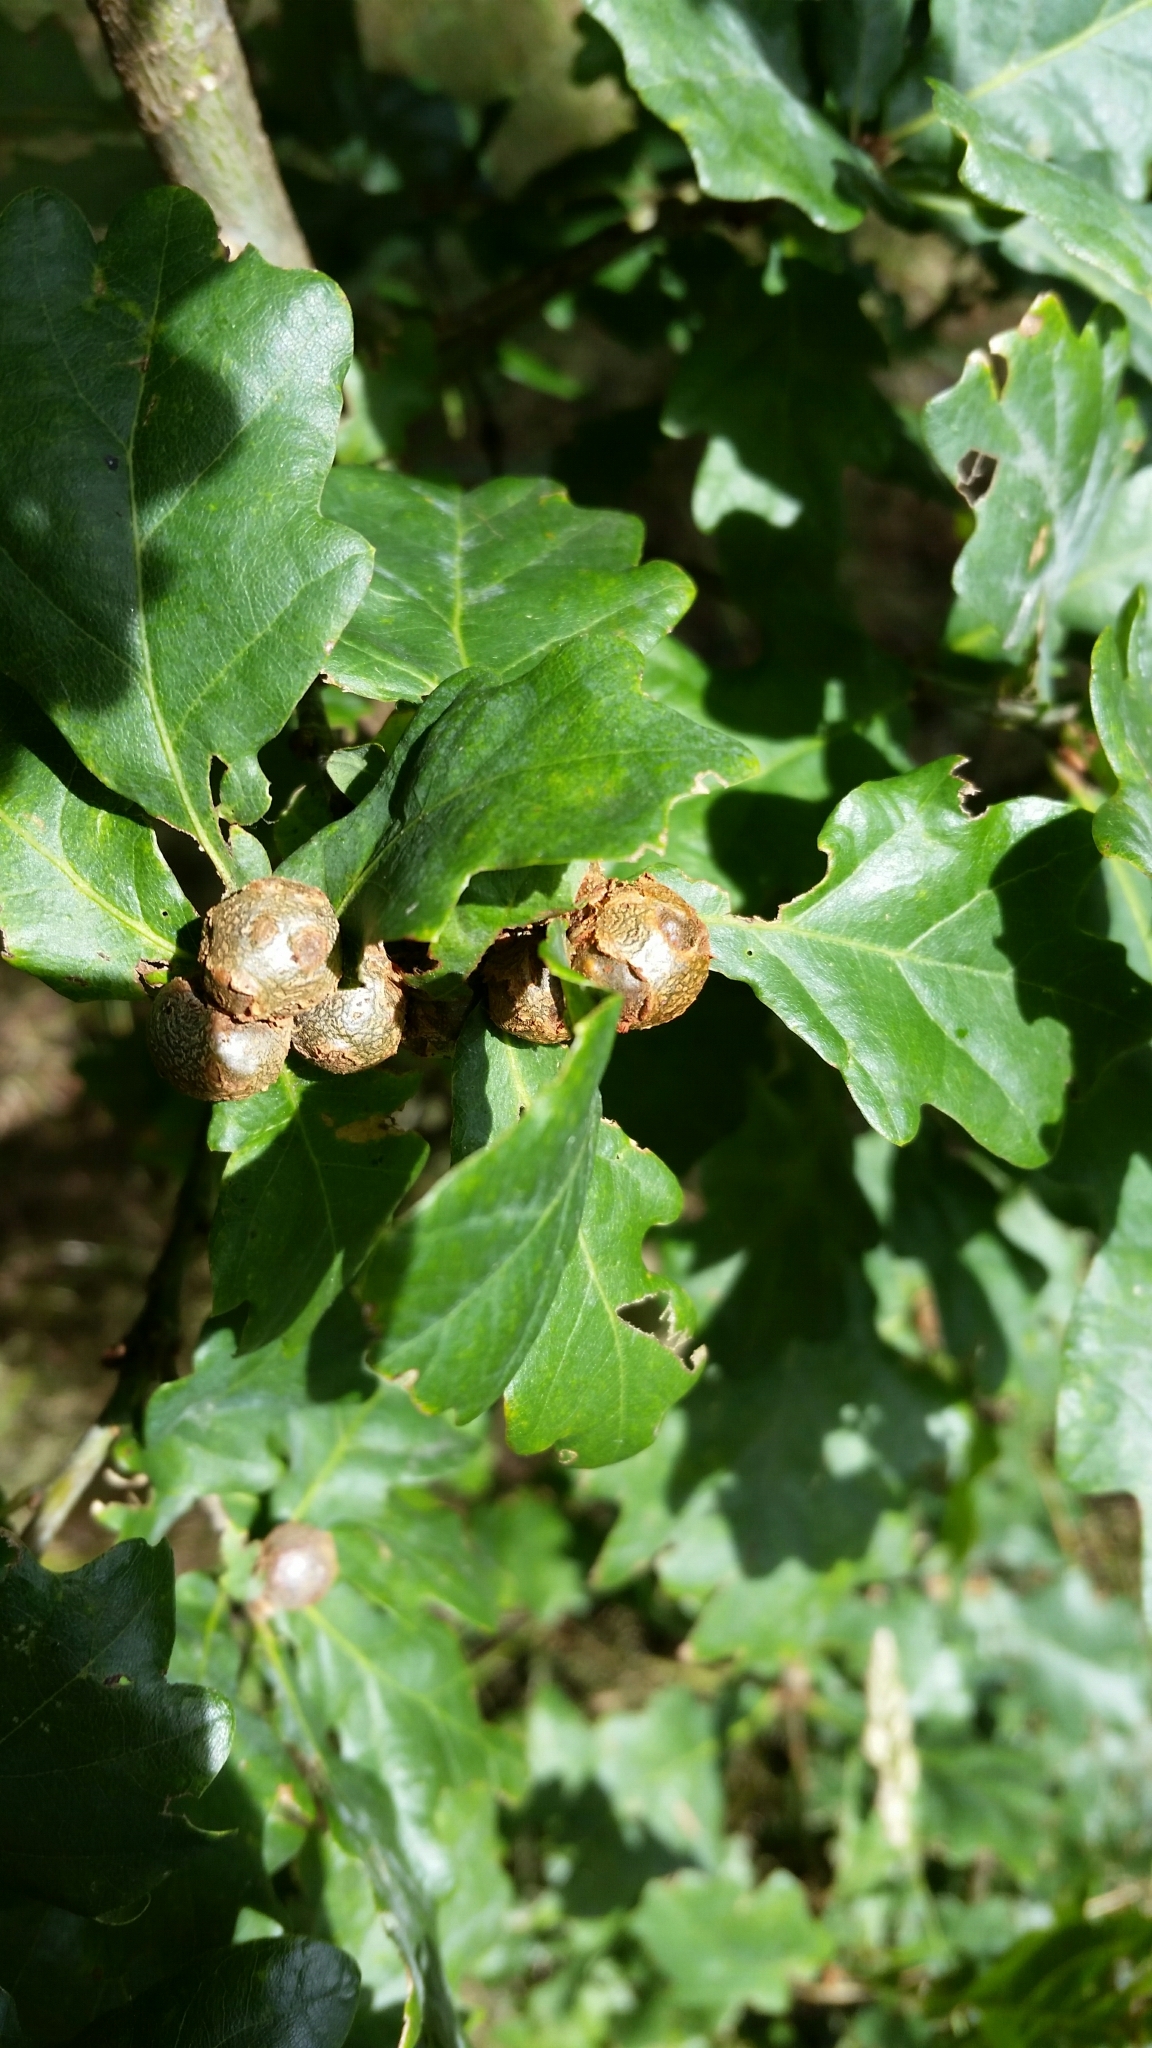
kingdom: Animalia
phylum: Arthropoda
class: Insecta
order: Hymenoptera
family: Cynipidae
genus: Andricus
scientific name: Andricus lignicolus
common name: Cola-nut gall
